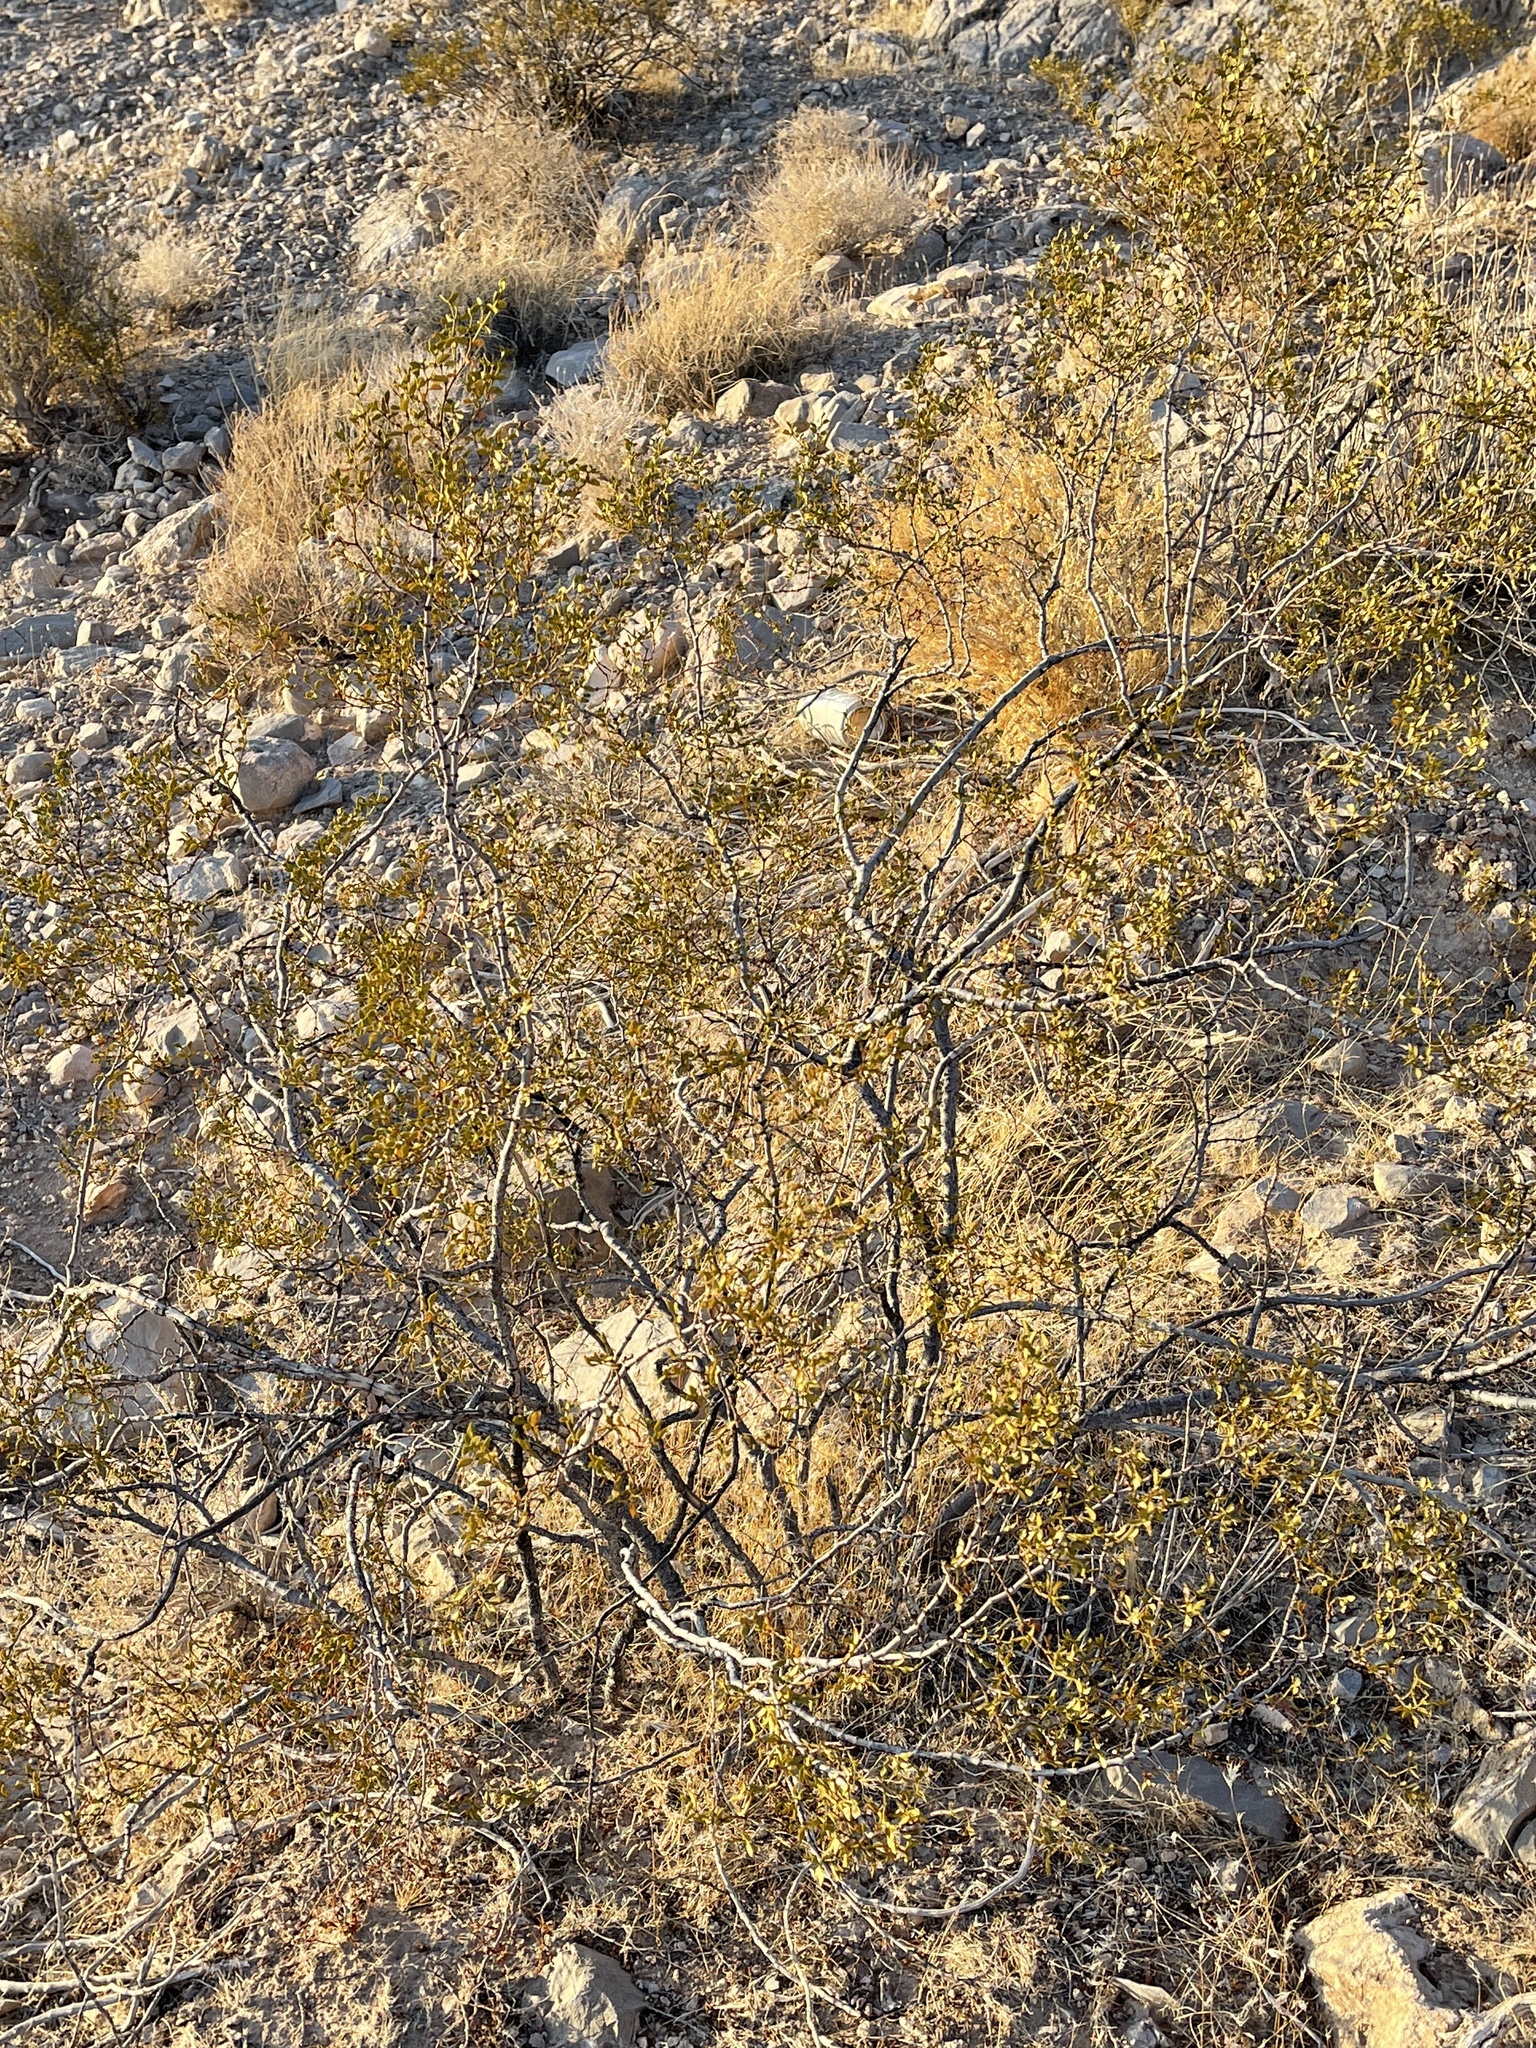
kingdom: Plantae
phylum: Tracheophyta
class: Magnoliopsida
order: Zygophyllales
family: Zygophyllaceae
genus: Larrea
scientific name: Larrea tridentata
